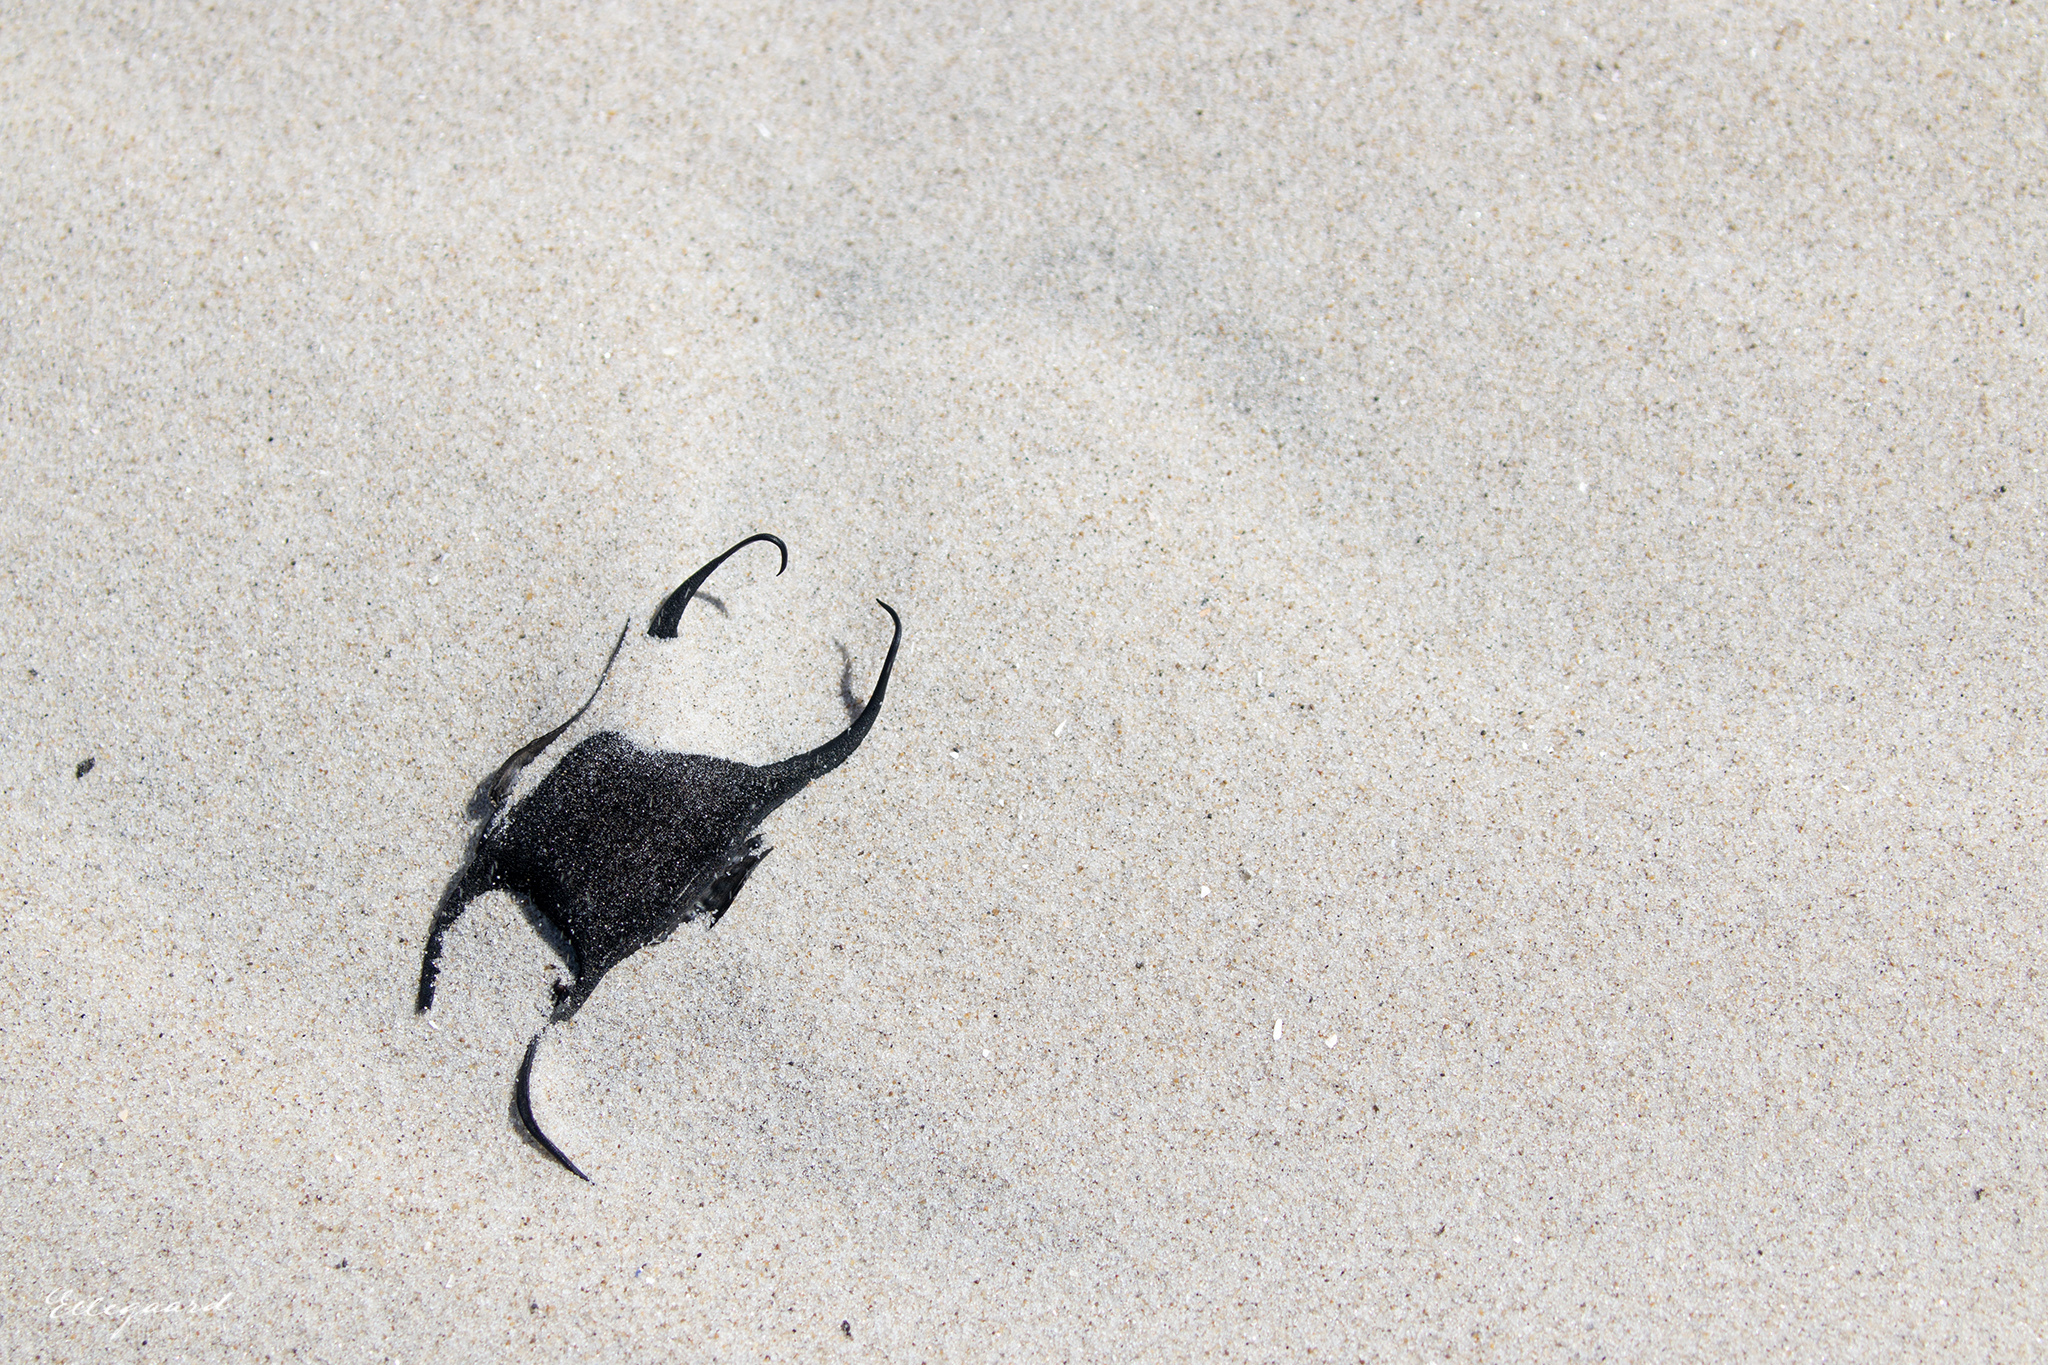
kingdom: Animalia
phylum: Chordata
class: Elasmobranchii
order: Rajiformes
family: Rajidae
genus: Amblyraja
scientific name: Amblyraja radiata
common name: Starry ray
